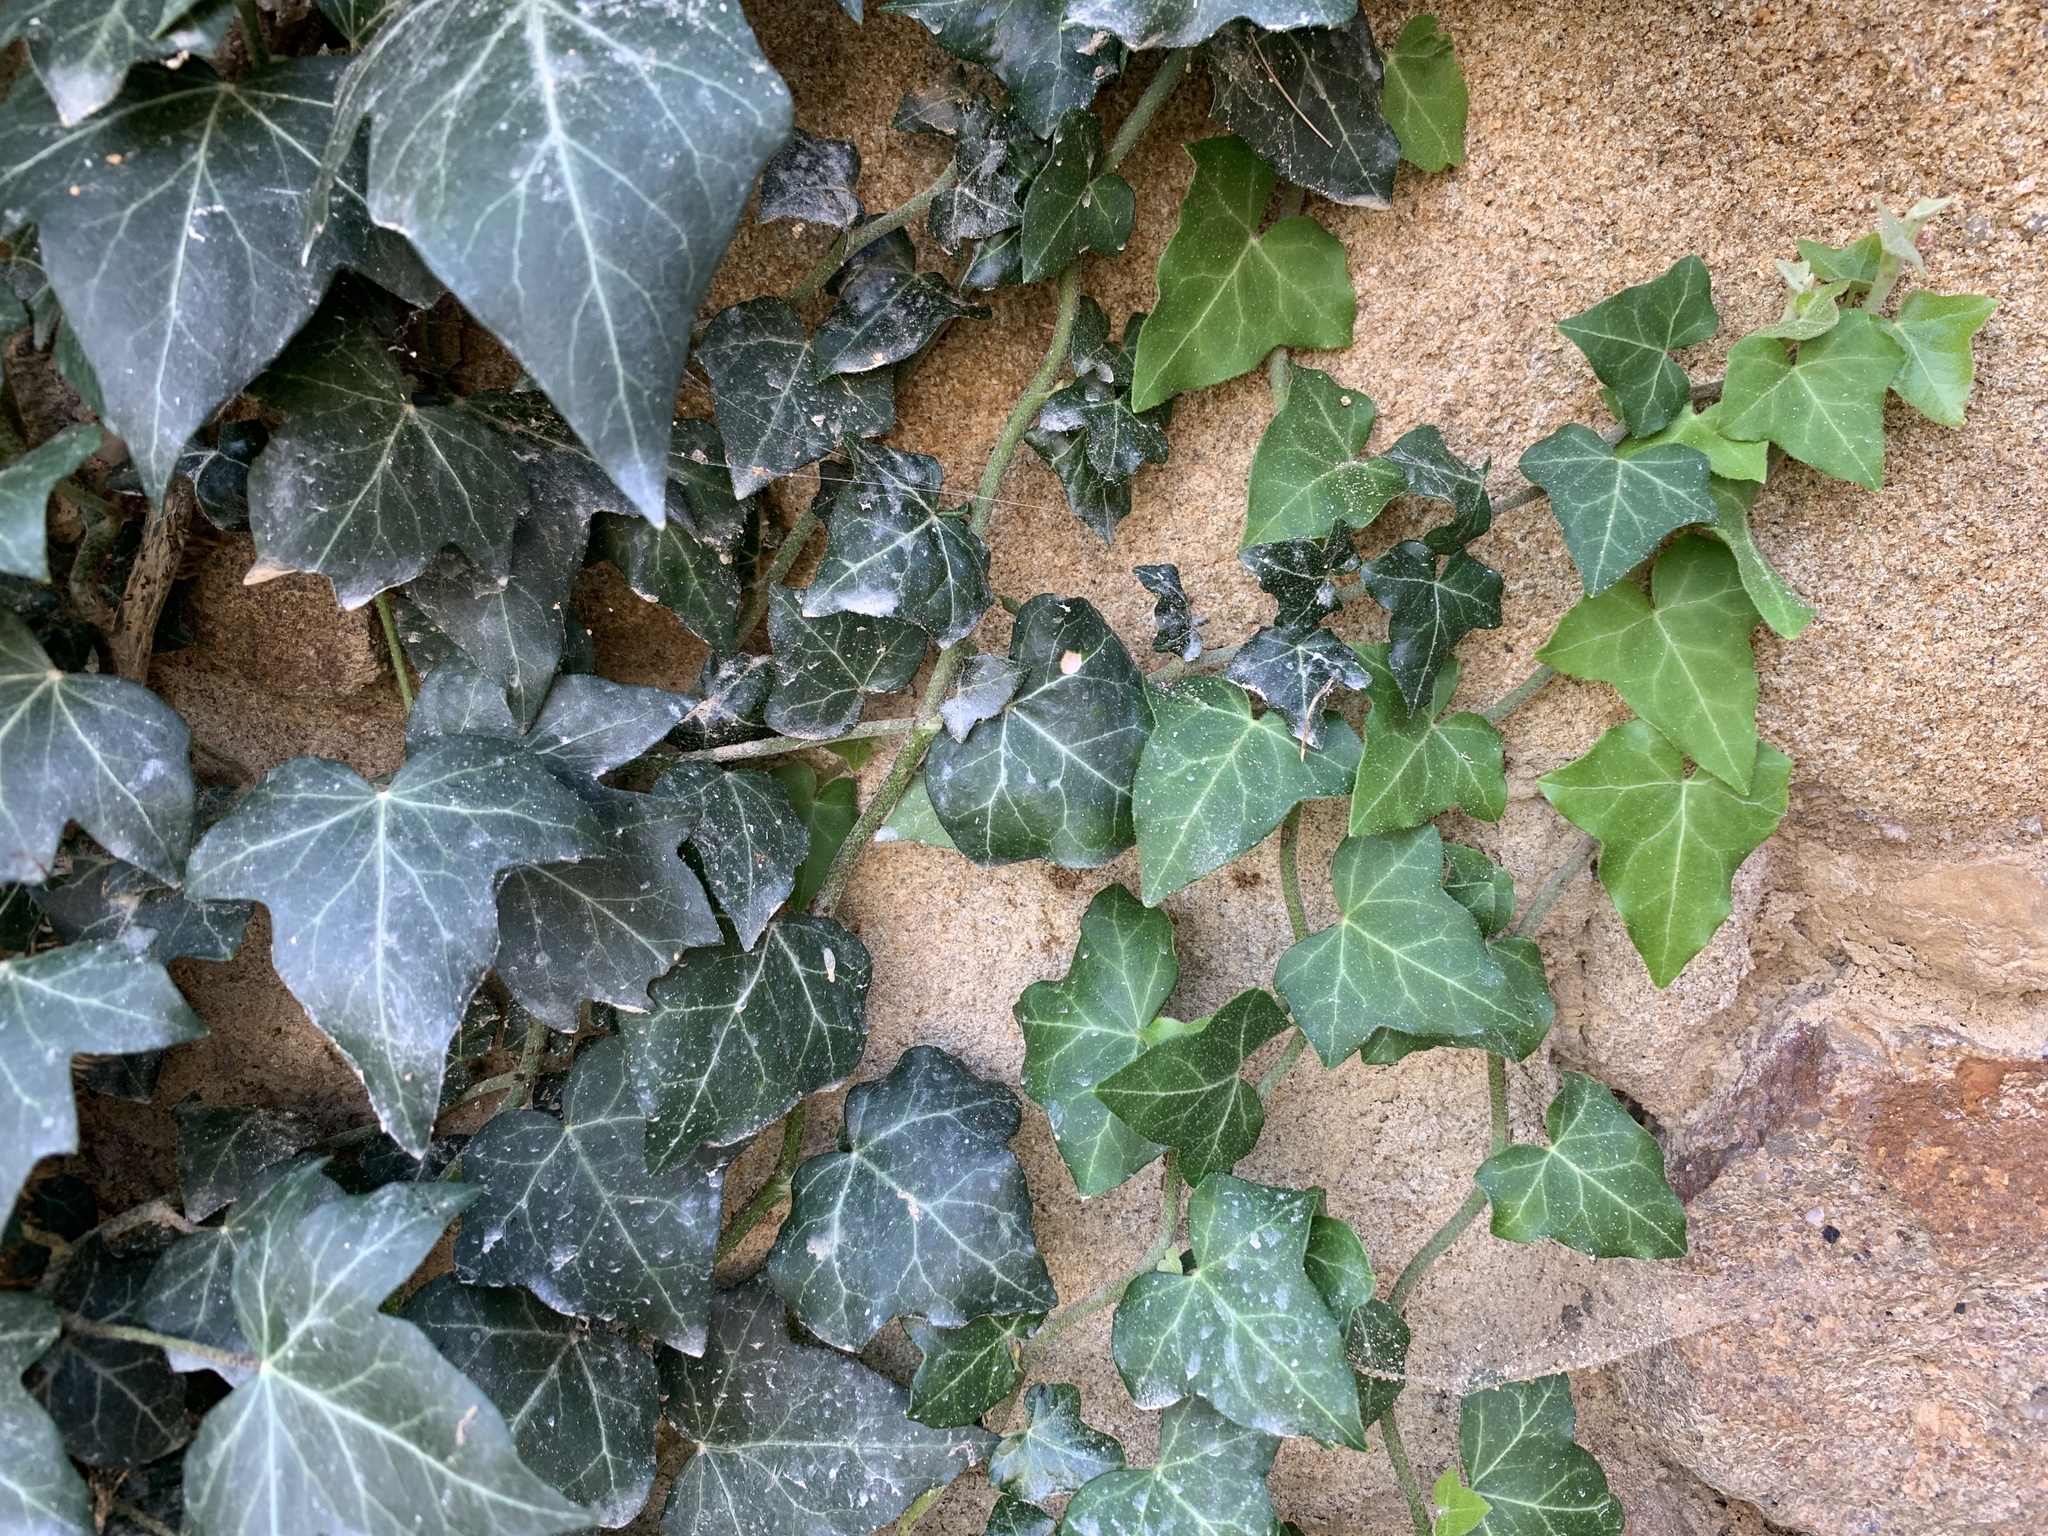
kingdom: Plantae
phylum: Tracheophyta
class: Magnoliopsida
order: Apiales
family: Araliaceae
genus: Hedera
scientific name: Hedera helix
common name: Ivy
